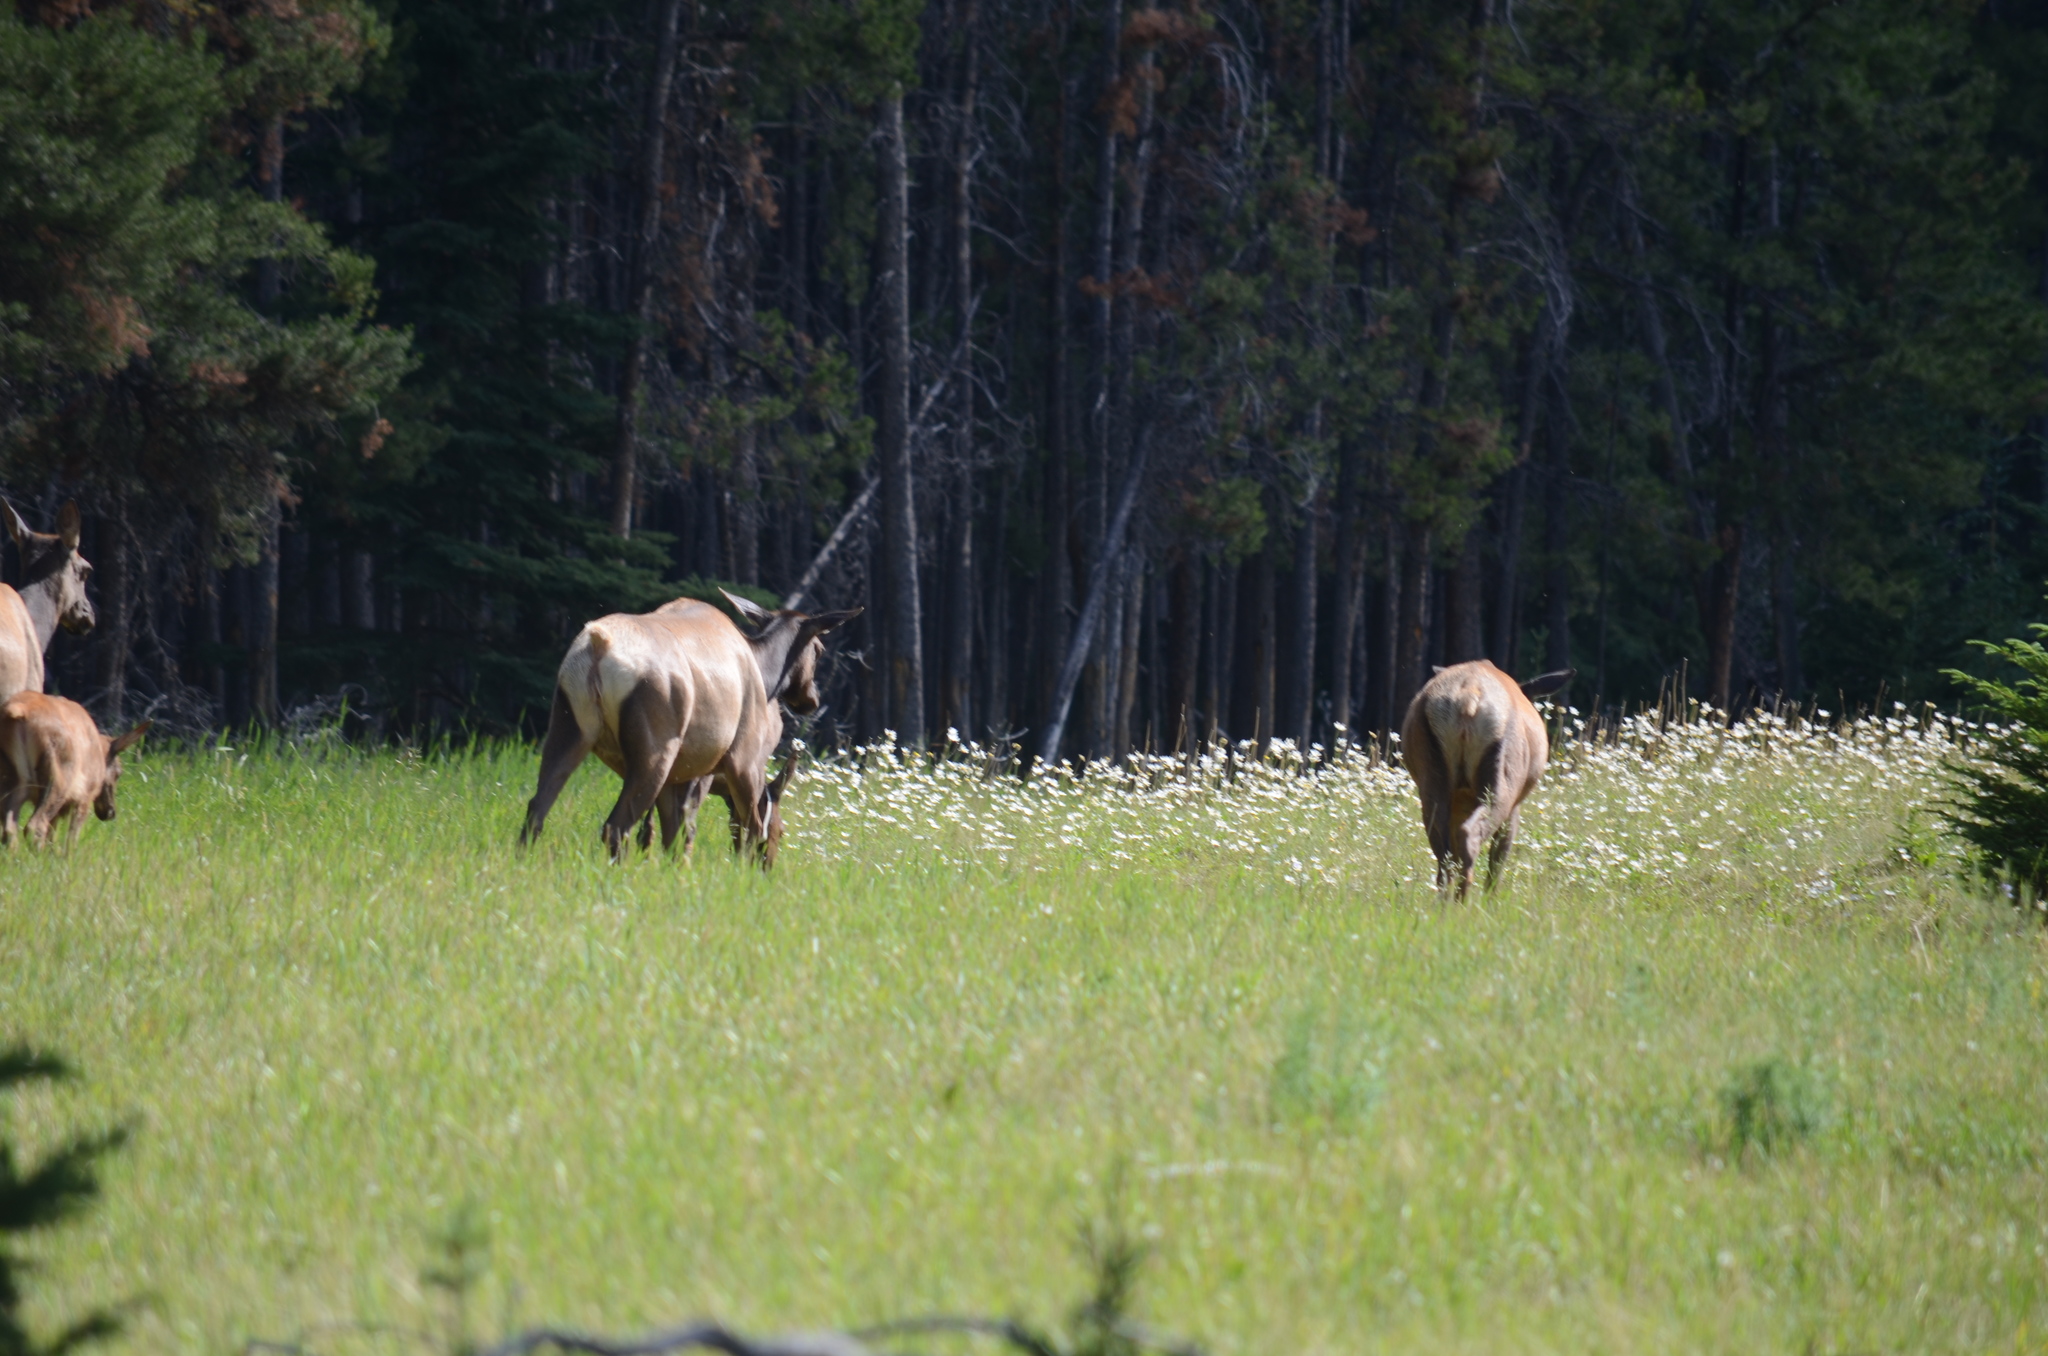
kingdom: Animalia
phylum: Chordata
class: Mammalia
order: Artiodactyla
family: Cervidae
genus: Cervus
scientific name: Cervus elaphus
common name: Red deer
